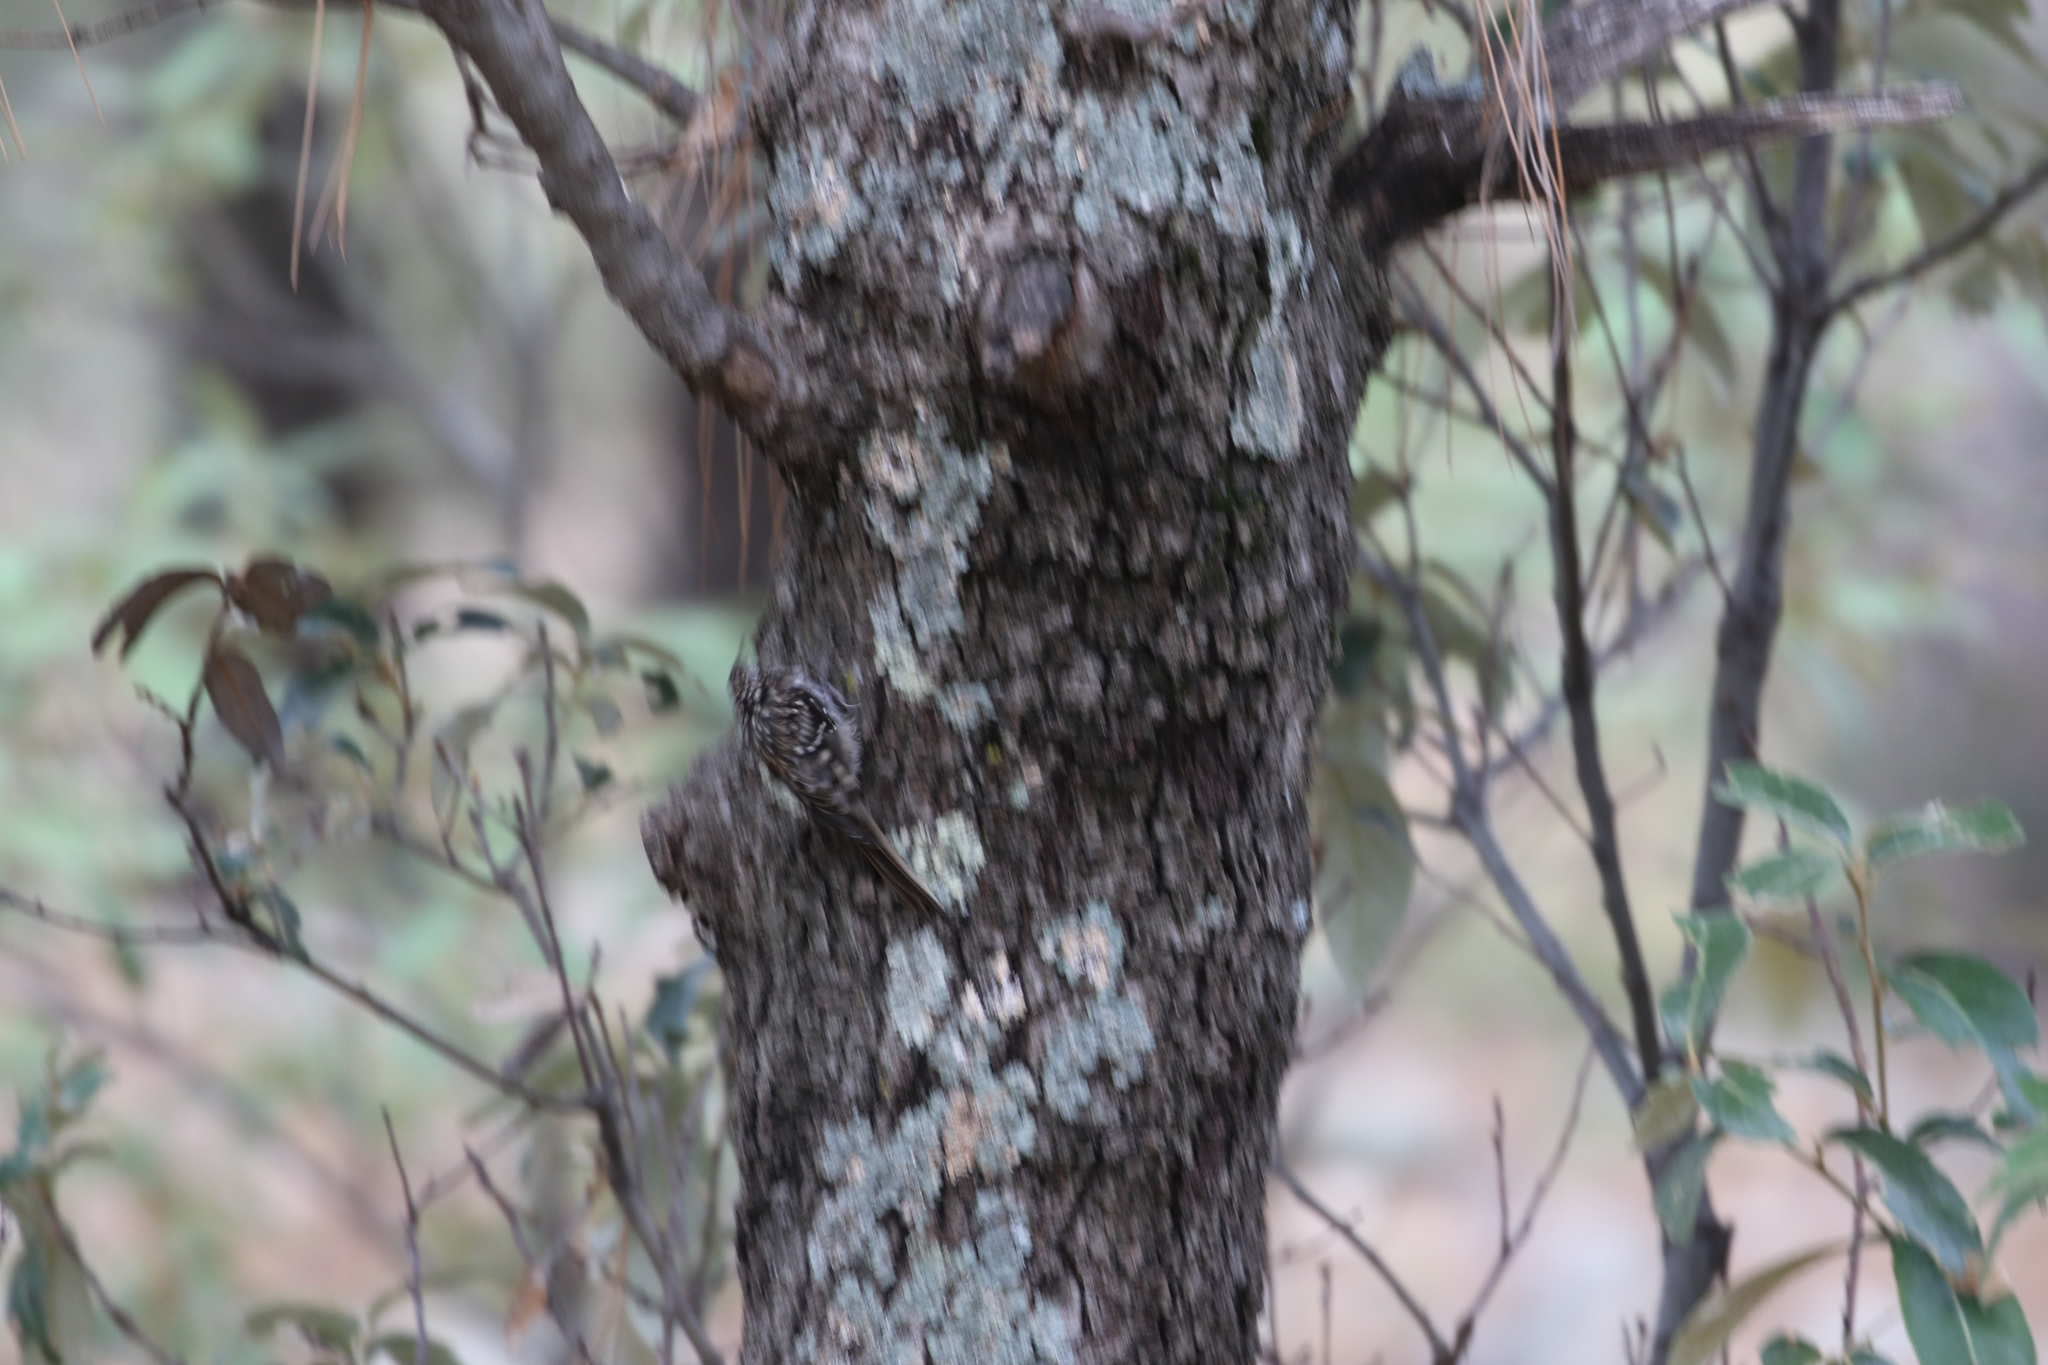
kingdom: Animalia
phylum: Chordata
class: Aves
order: Passeriformes
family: Certhiidae
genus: Certhia
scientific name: Certhia americana
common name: Brown creeper
